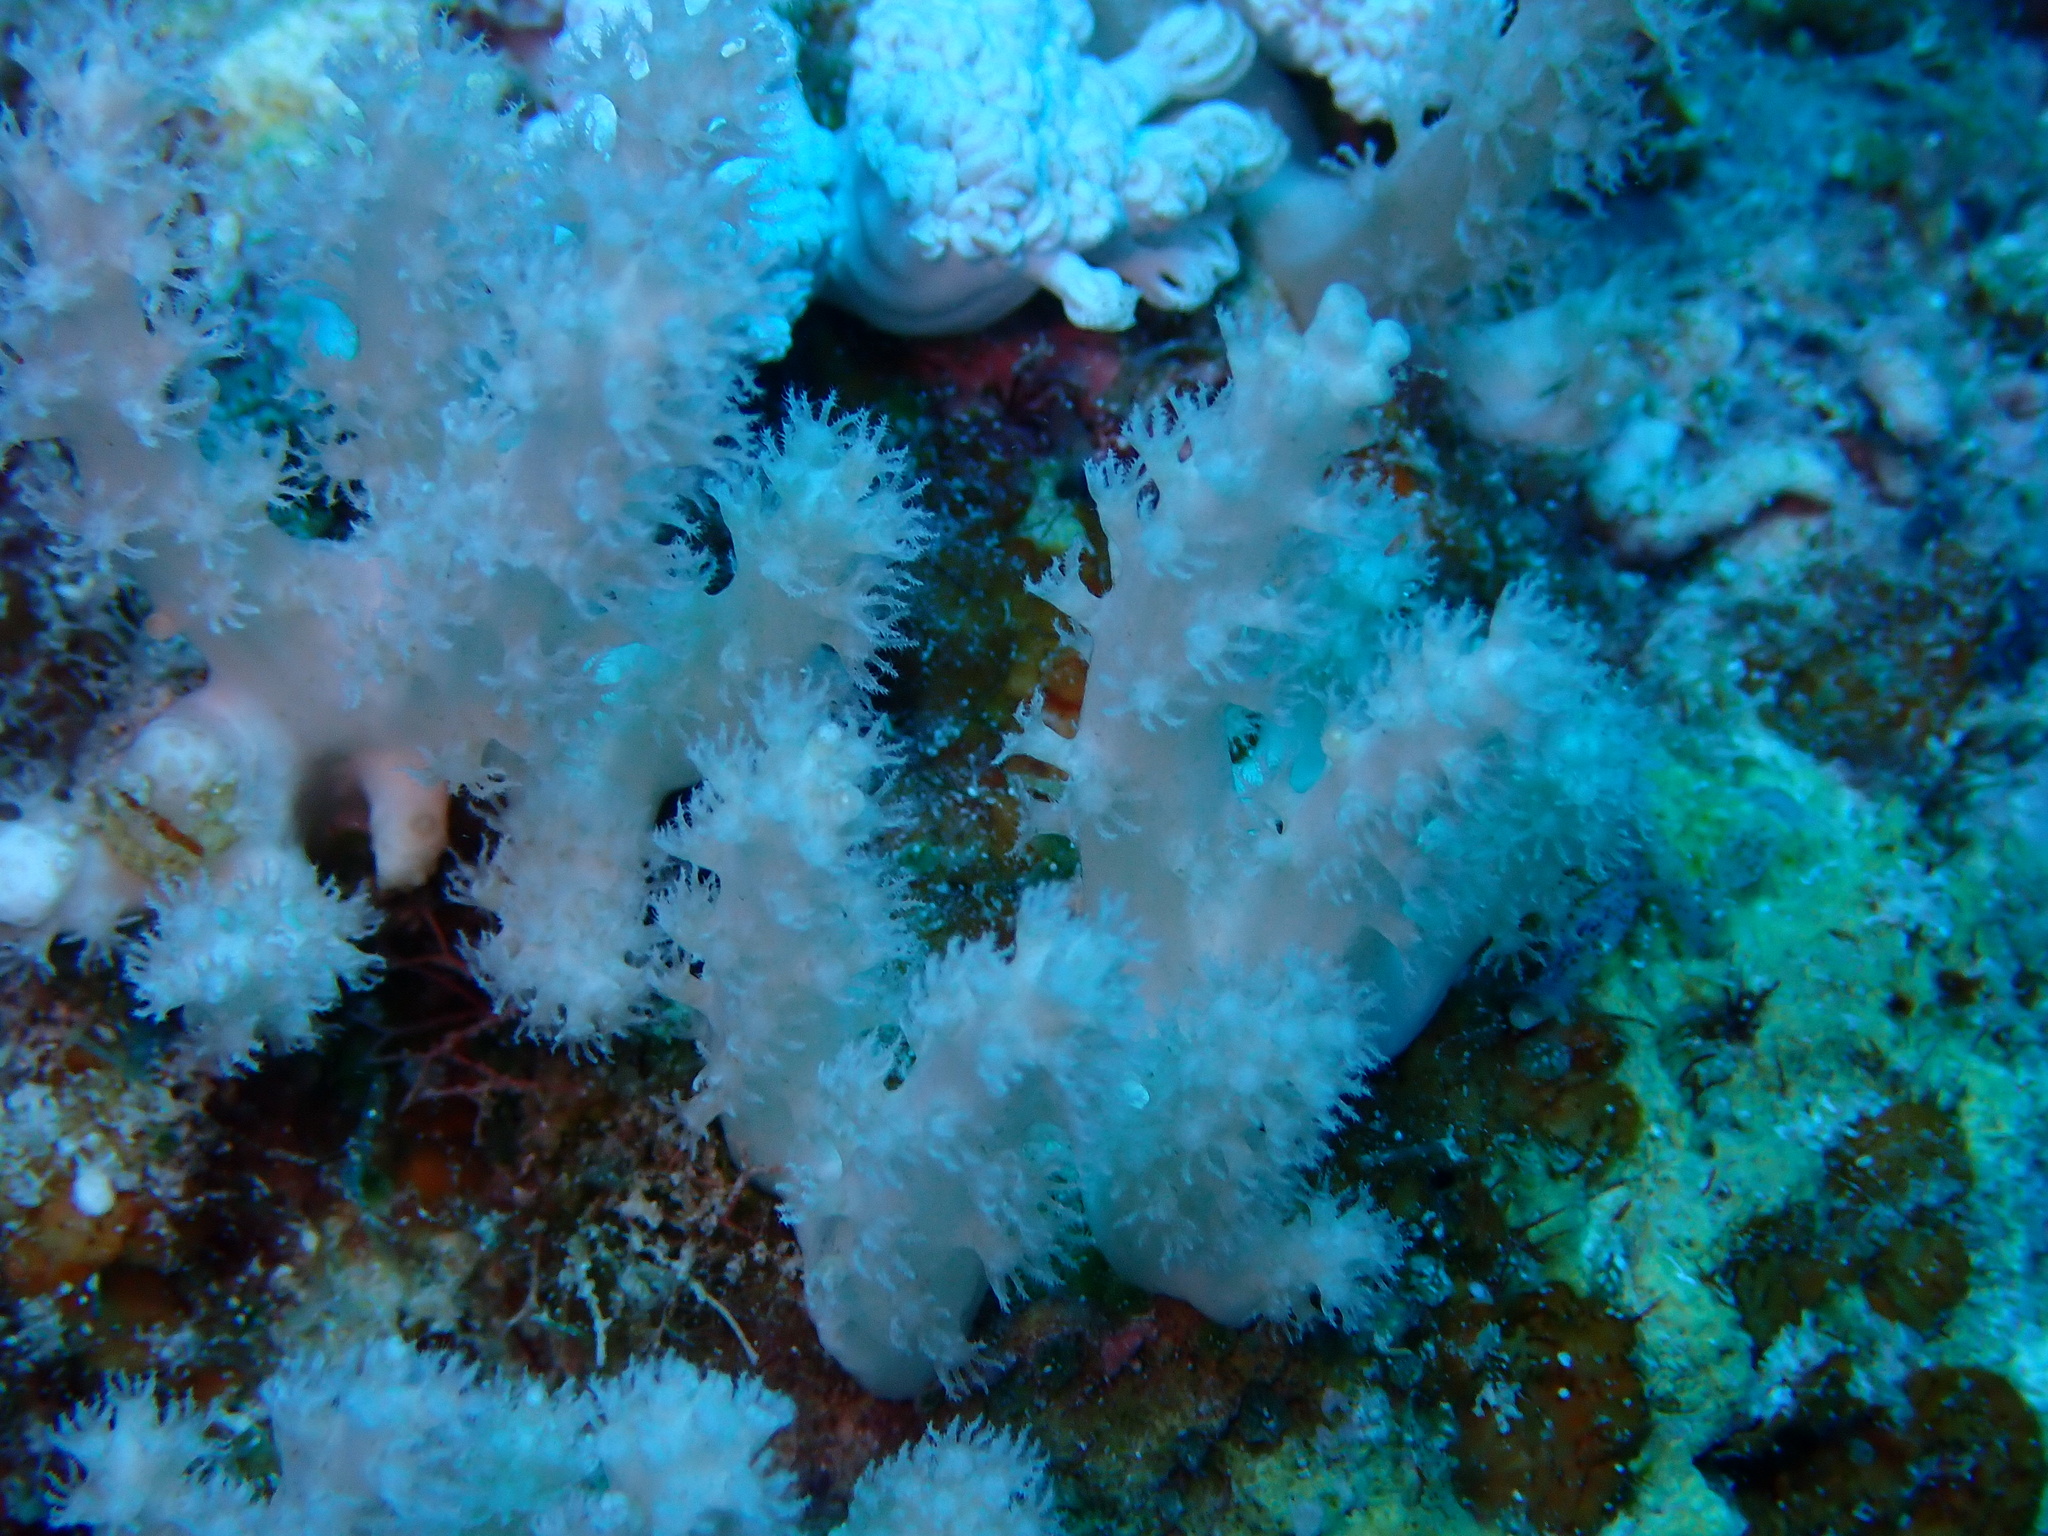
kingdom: Animalia
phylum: Cnidaria
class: Anthozoa
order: Malacalcyonacea
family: Lemnaliadae
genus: Paralemnalia
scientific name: Paralemnalia
